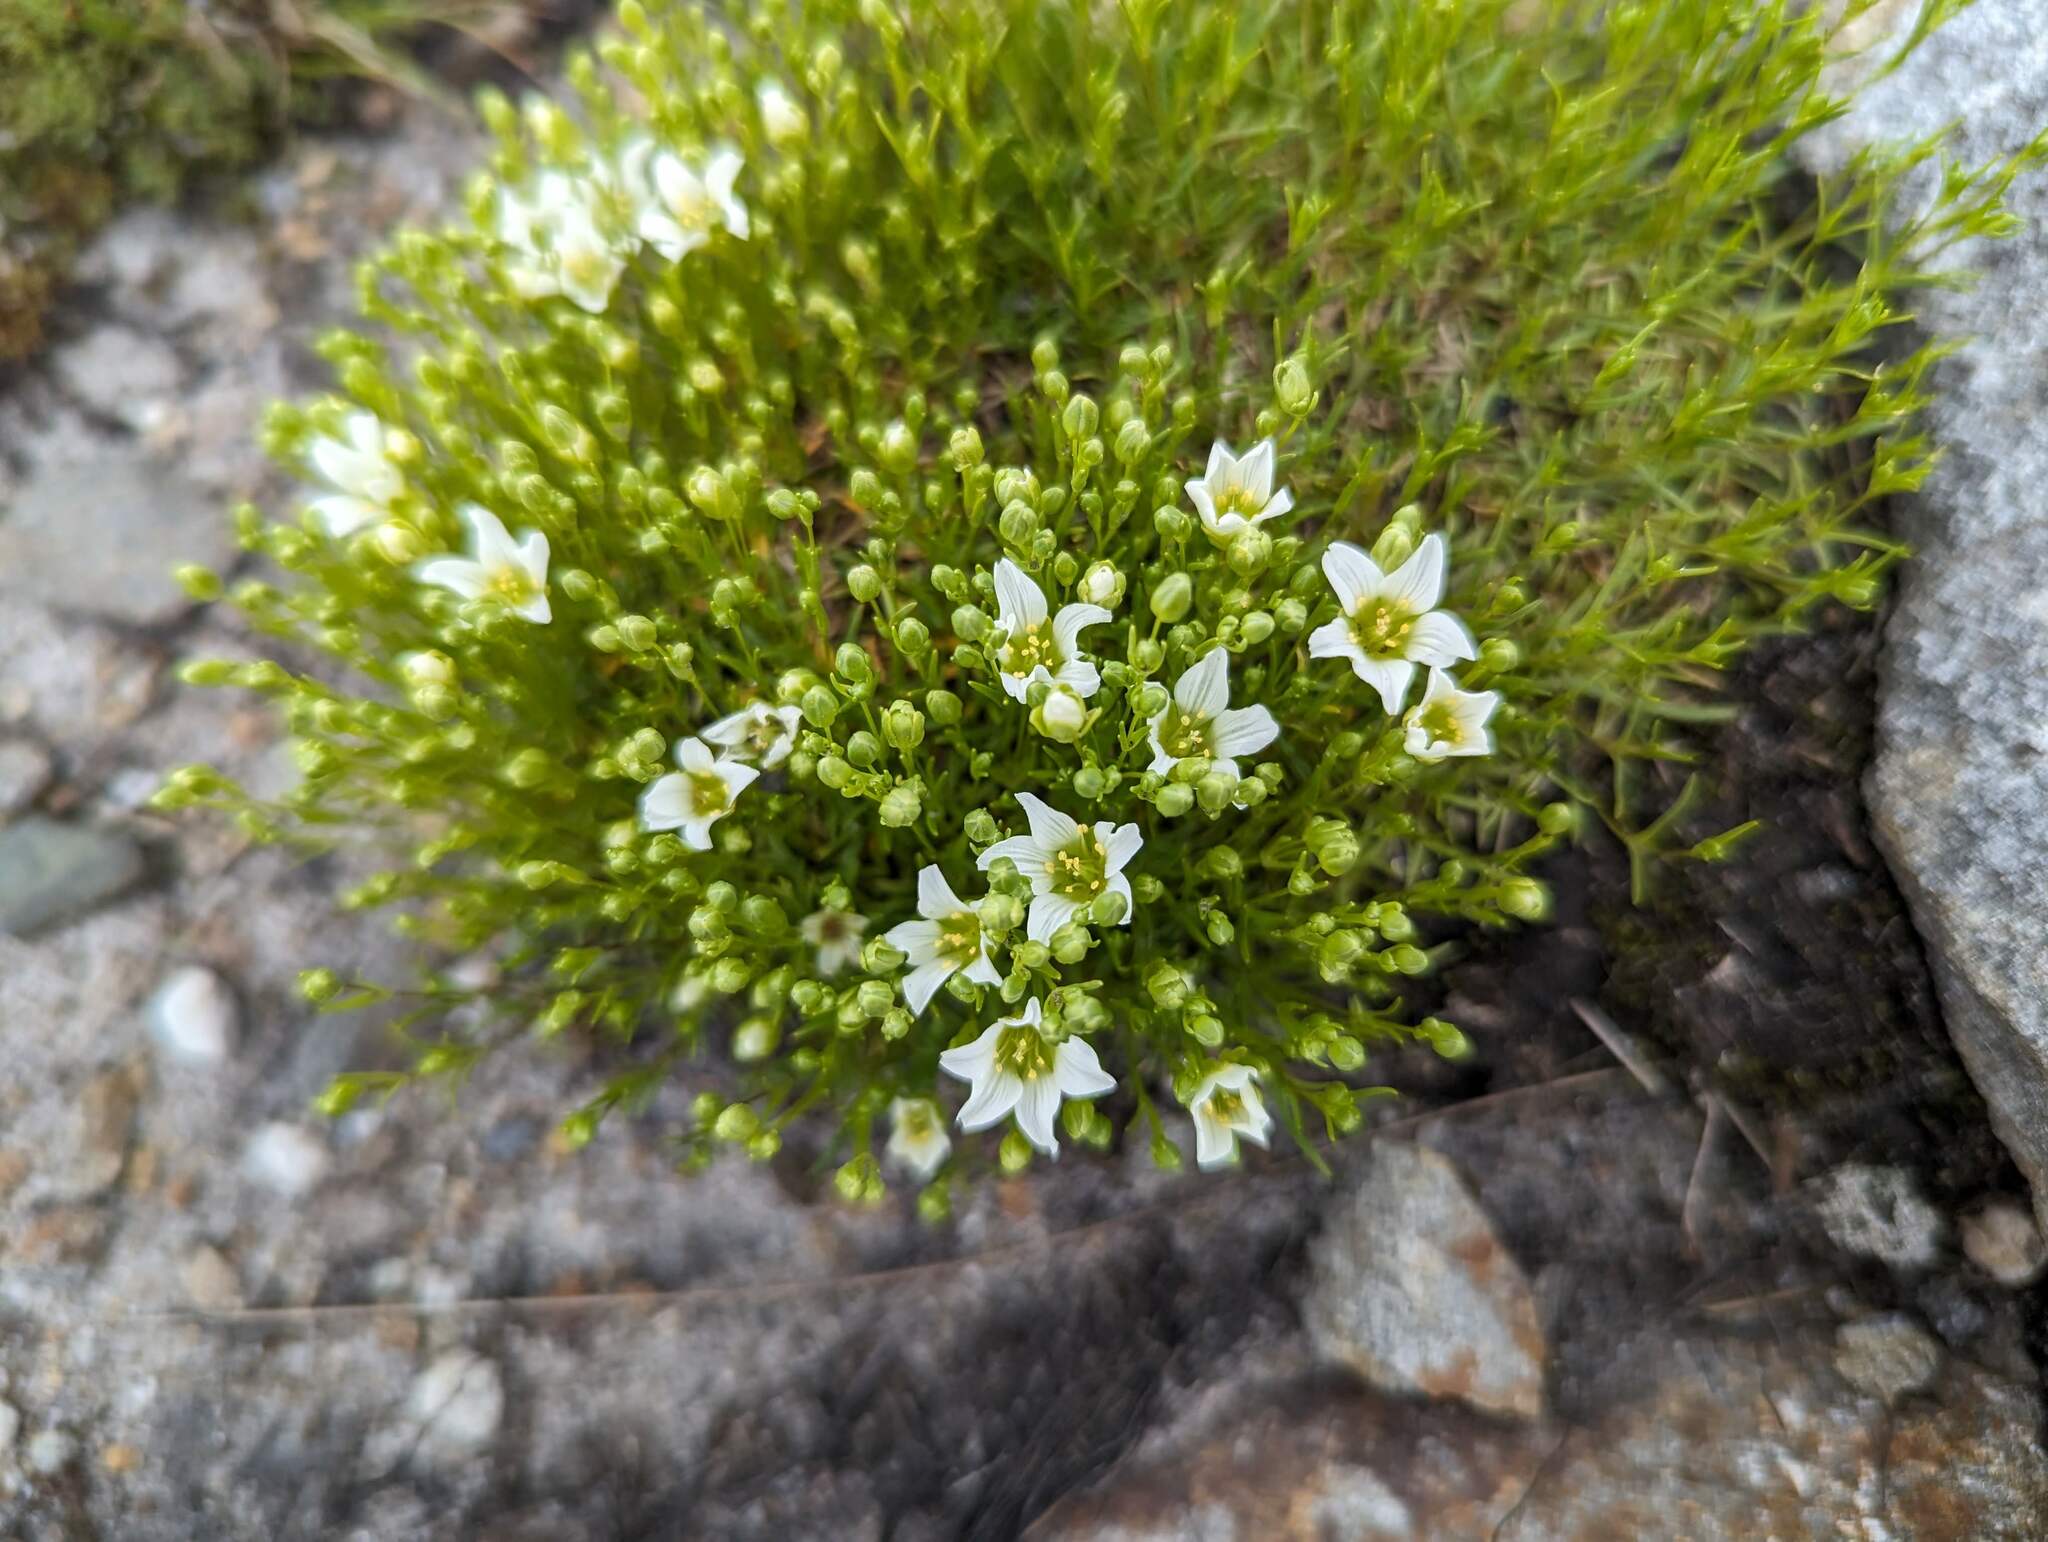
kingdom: Plantae
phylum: Tracheophyta
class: Magnoliopsida
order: Caryophyllales
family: Caryophyllaceae
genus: Geocarpon
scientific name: Geocarpon groenlandicum
